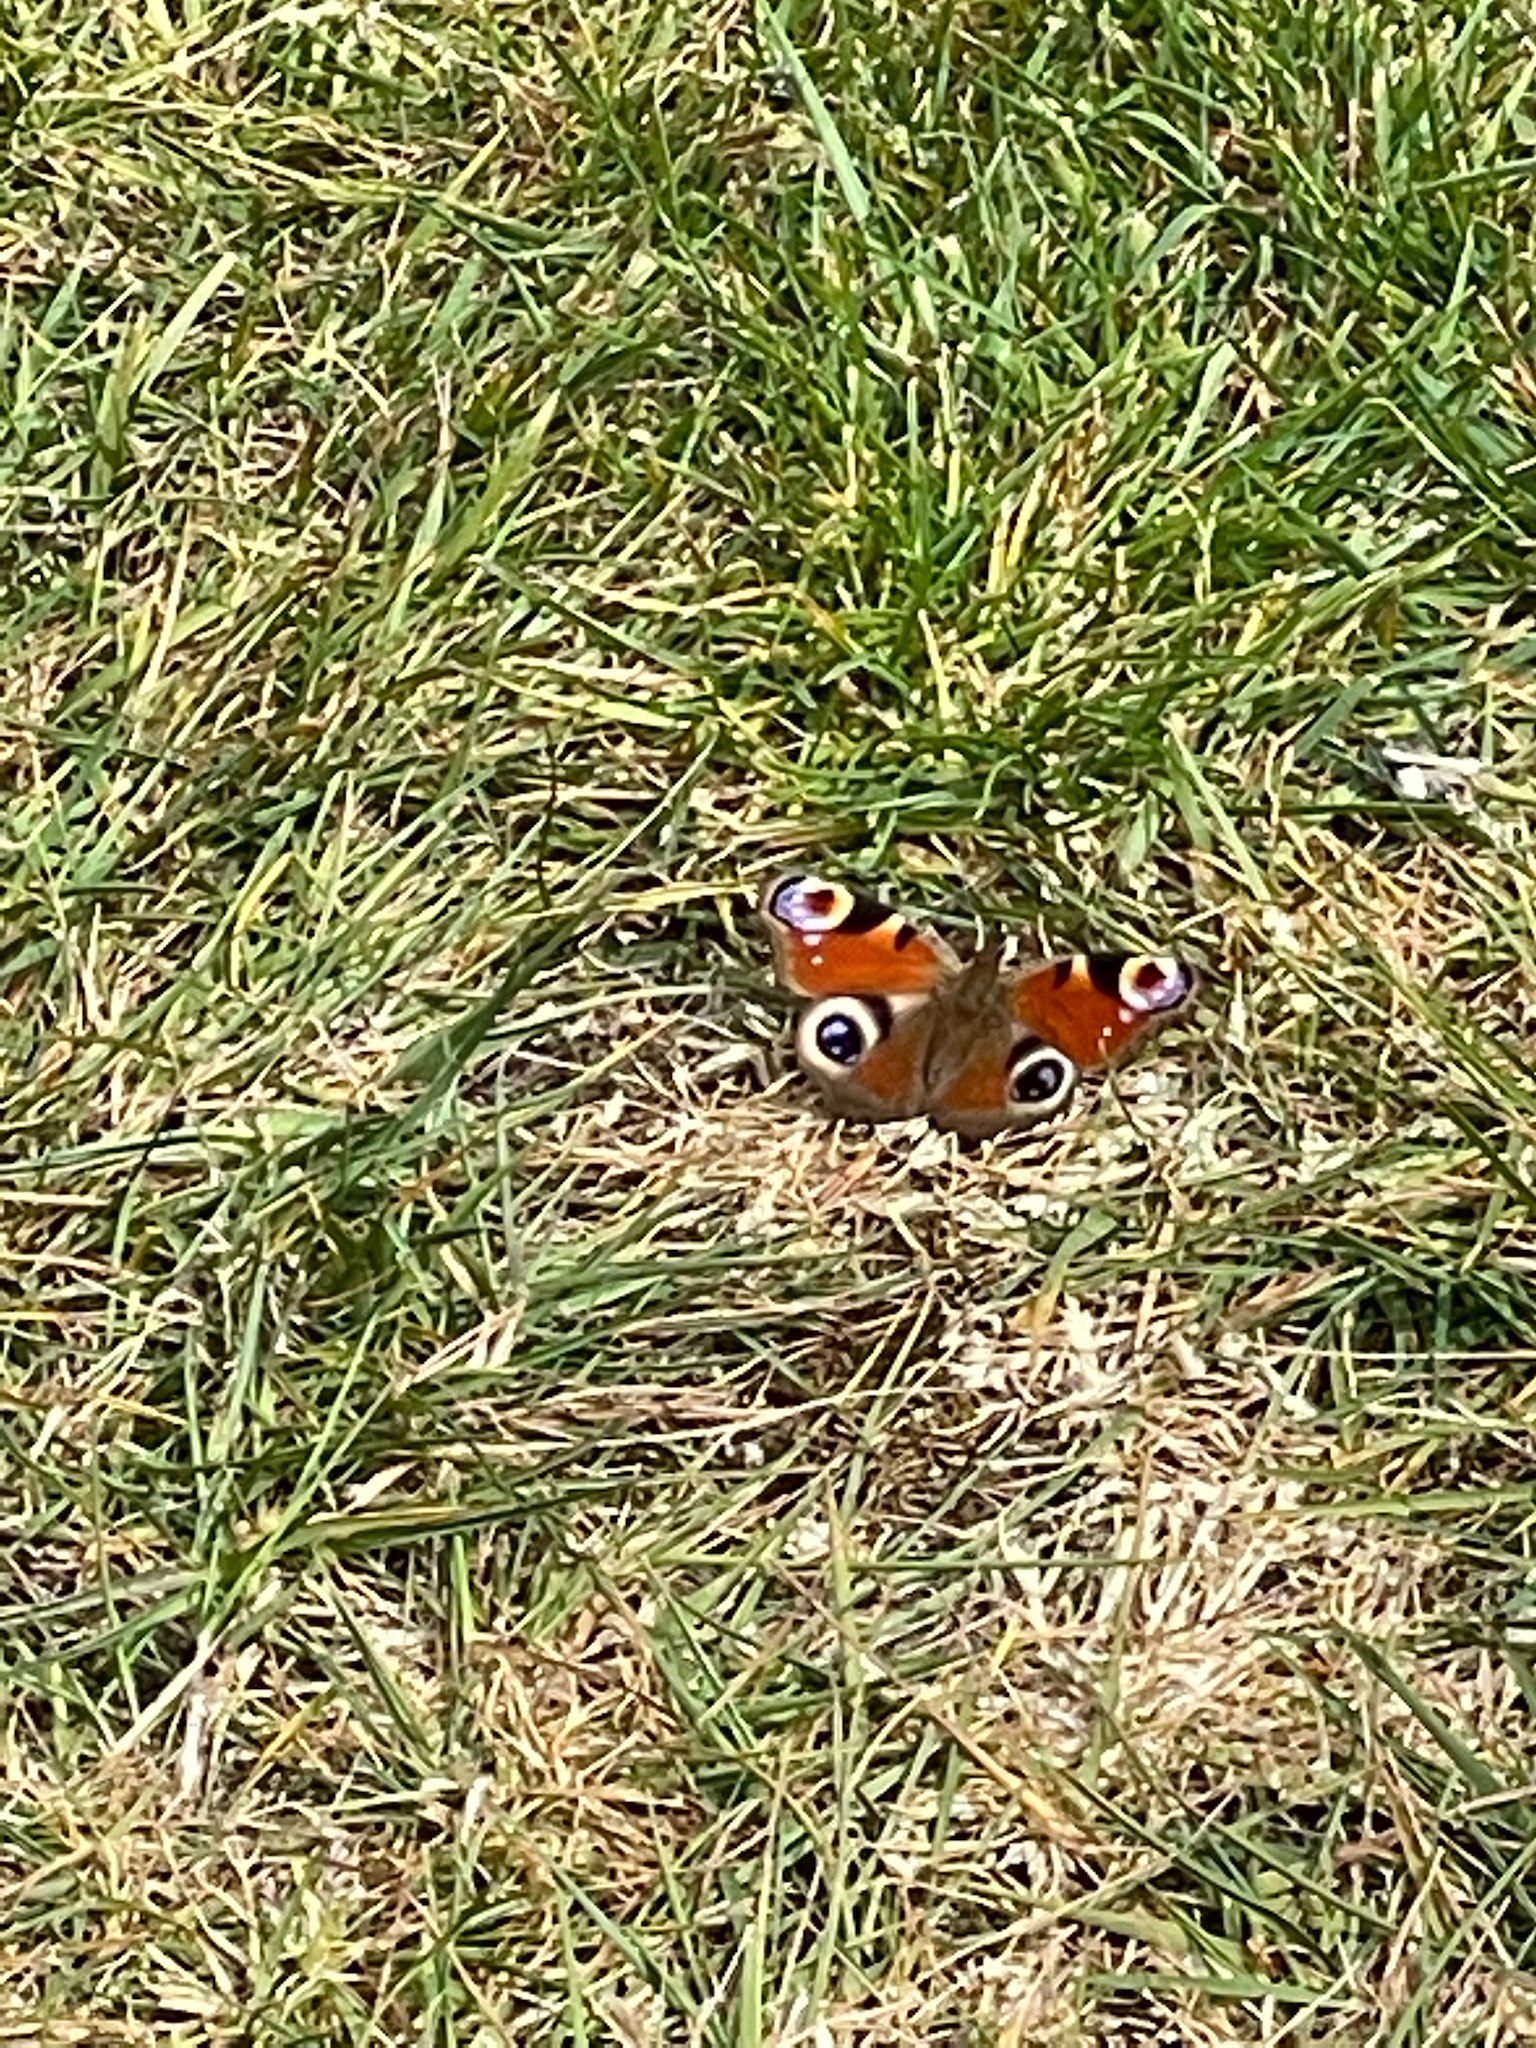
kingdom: Animalia
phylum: Arthropoda
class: Insecta
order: Lepidoptera
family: Nymphalidae
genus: Aglais
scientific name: Aglais io
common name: Peacock
